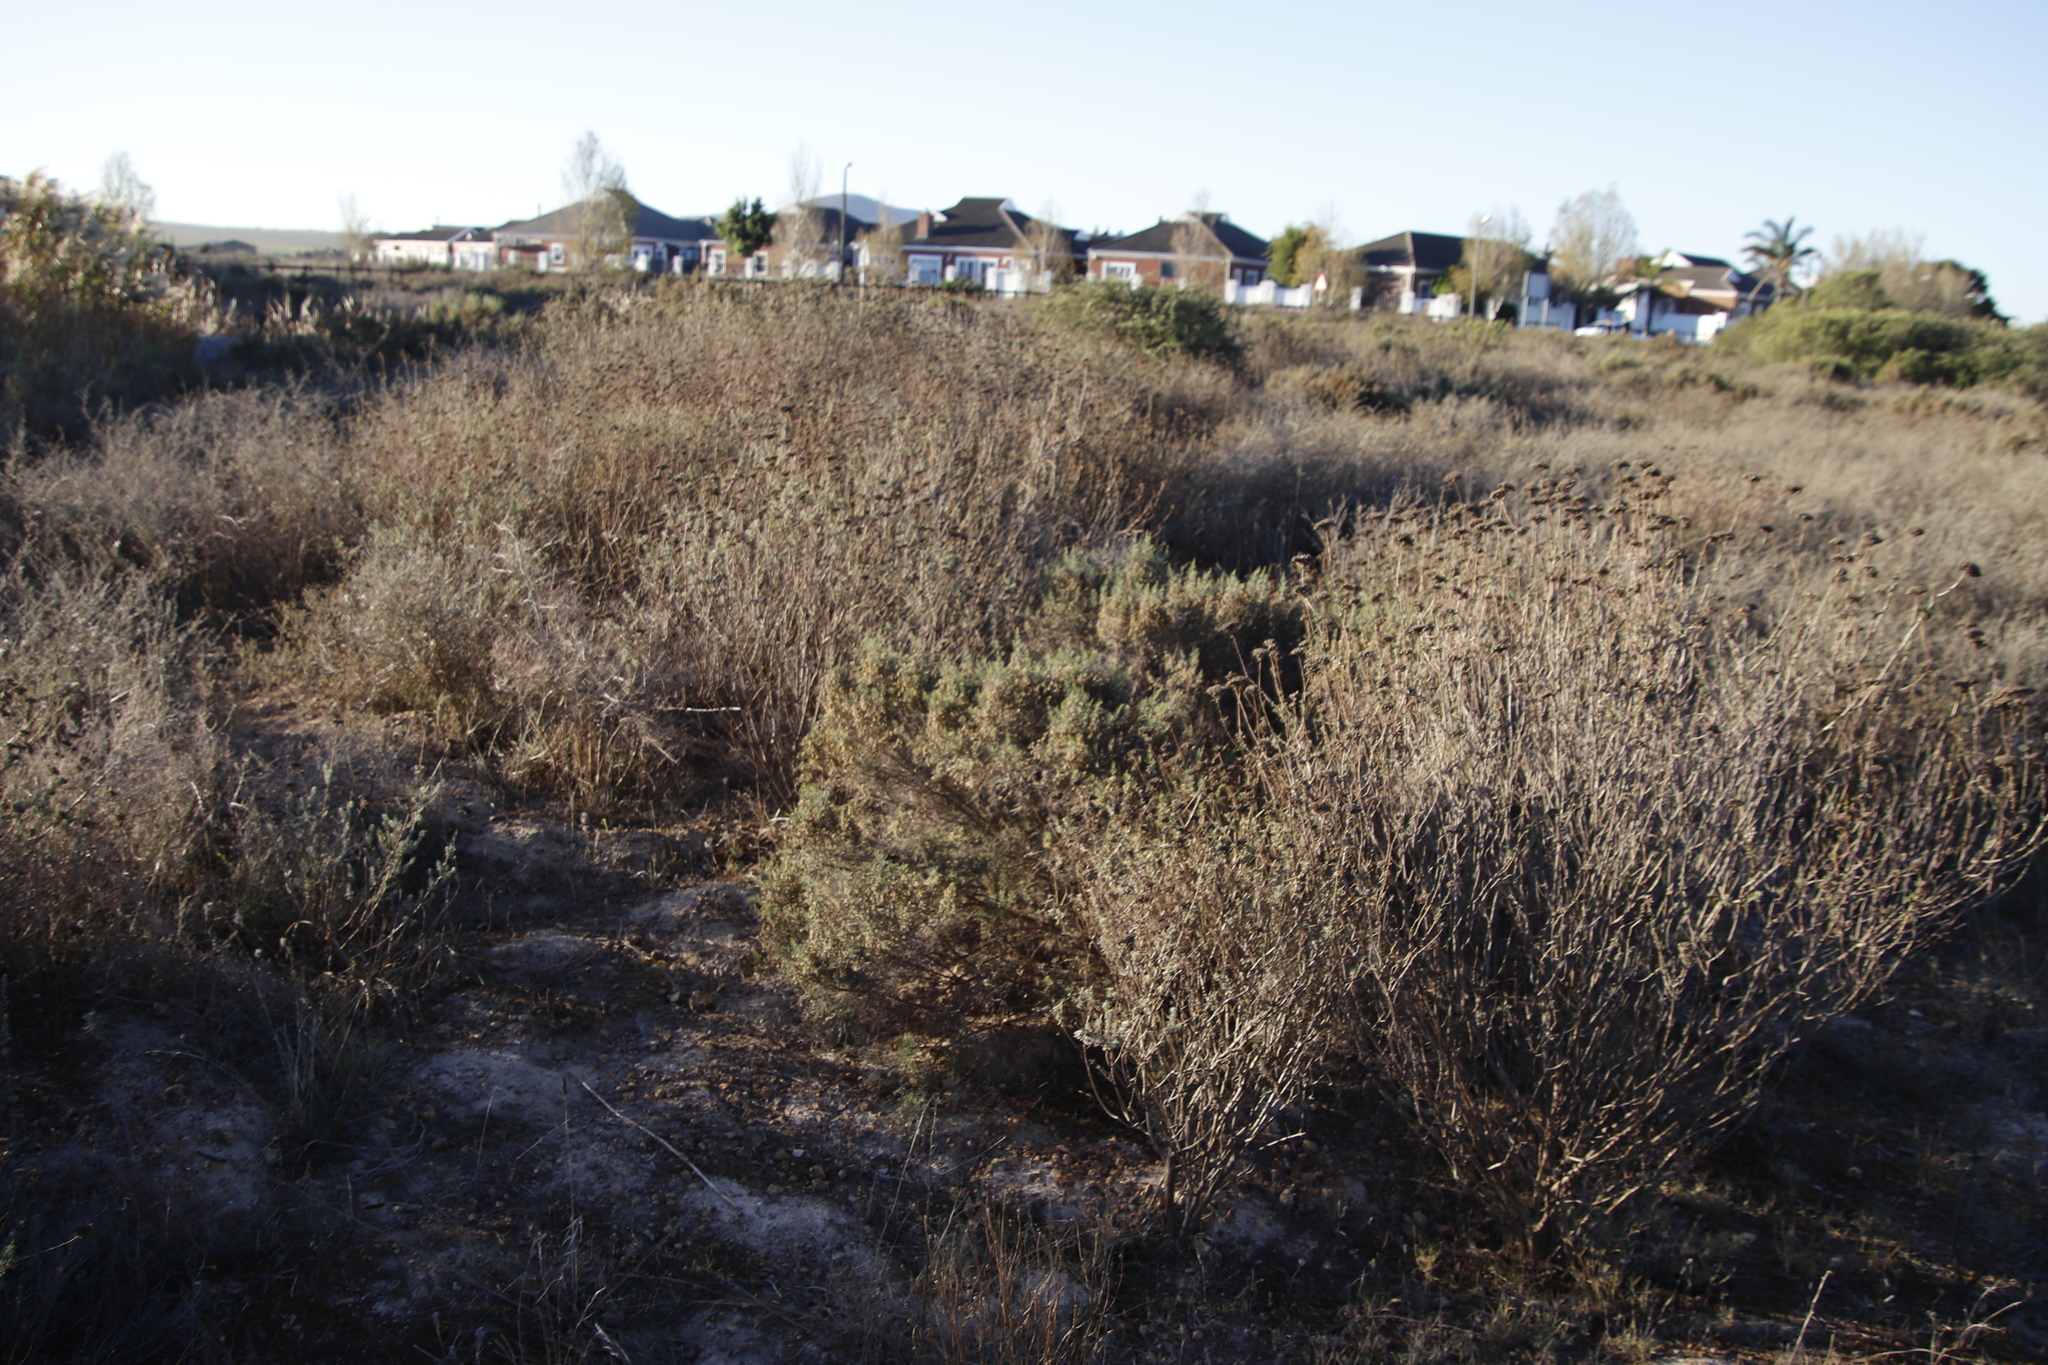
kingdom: Plantae
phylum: Tracheophyta
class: Magnoliopsida
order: Asterales
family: Asteraceae
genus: Dicerothamnus
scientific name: Dicerothamnus rhinocerotis
